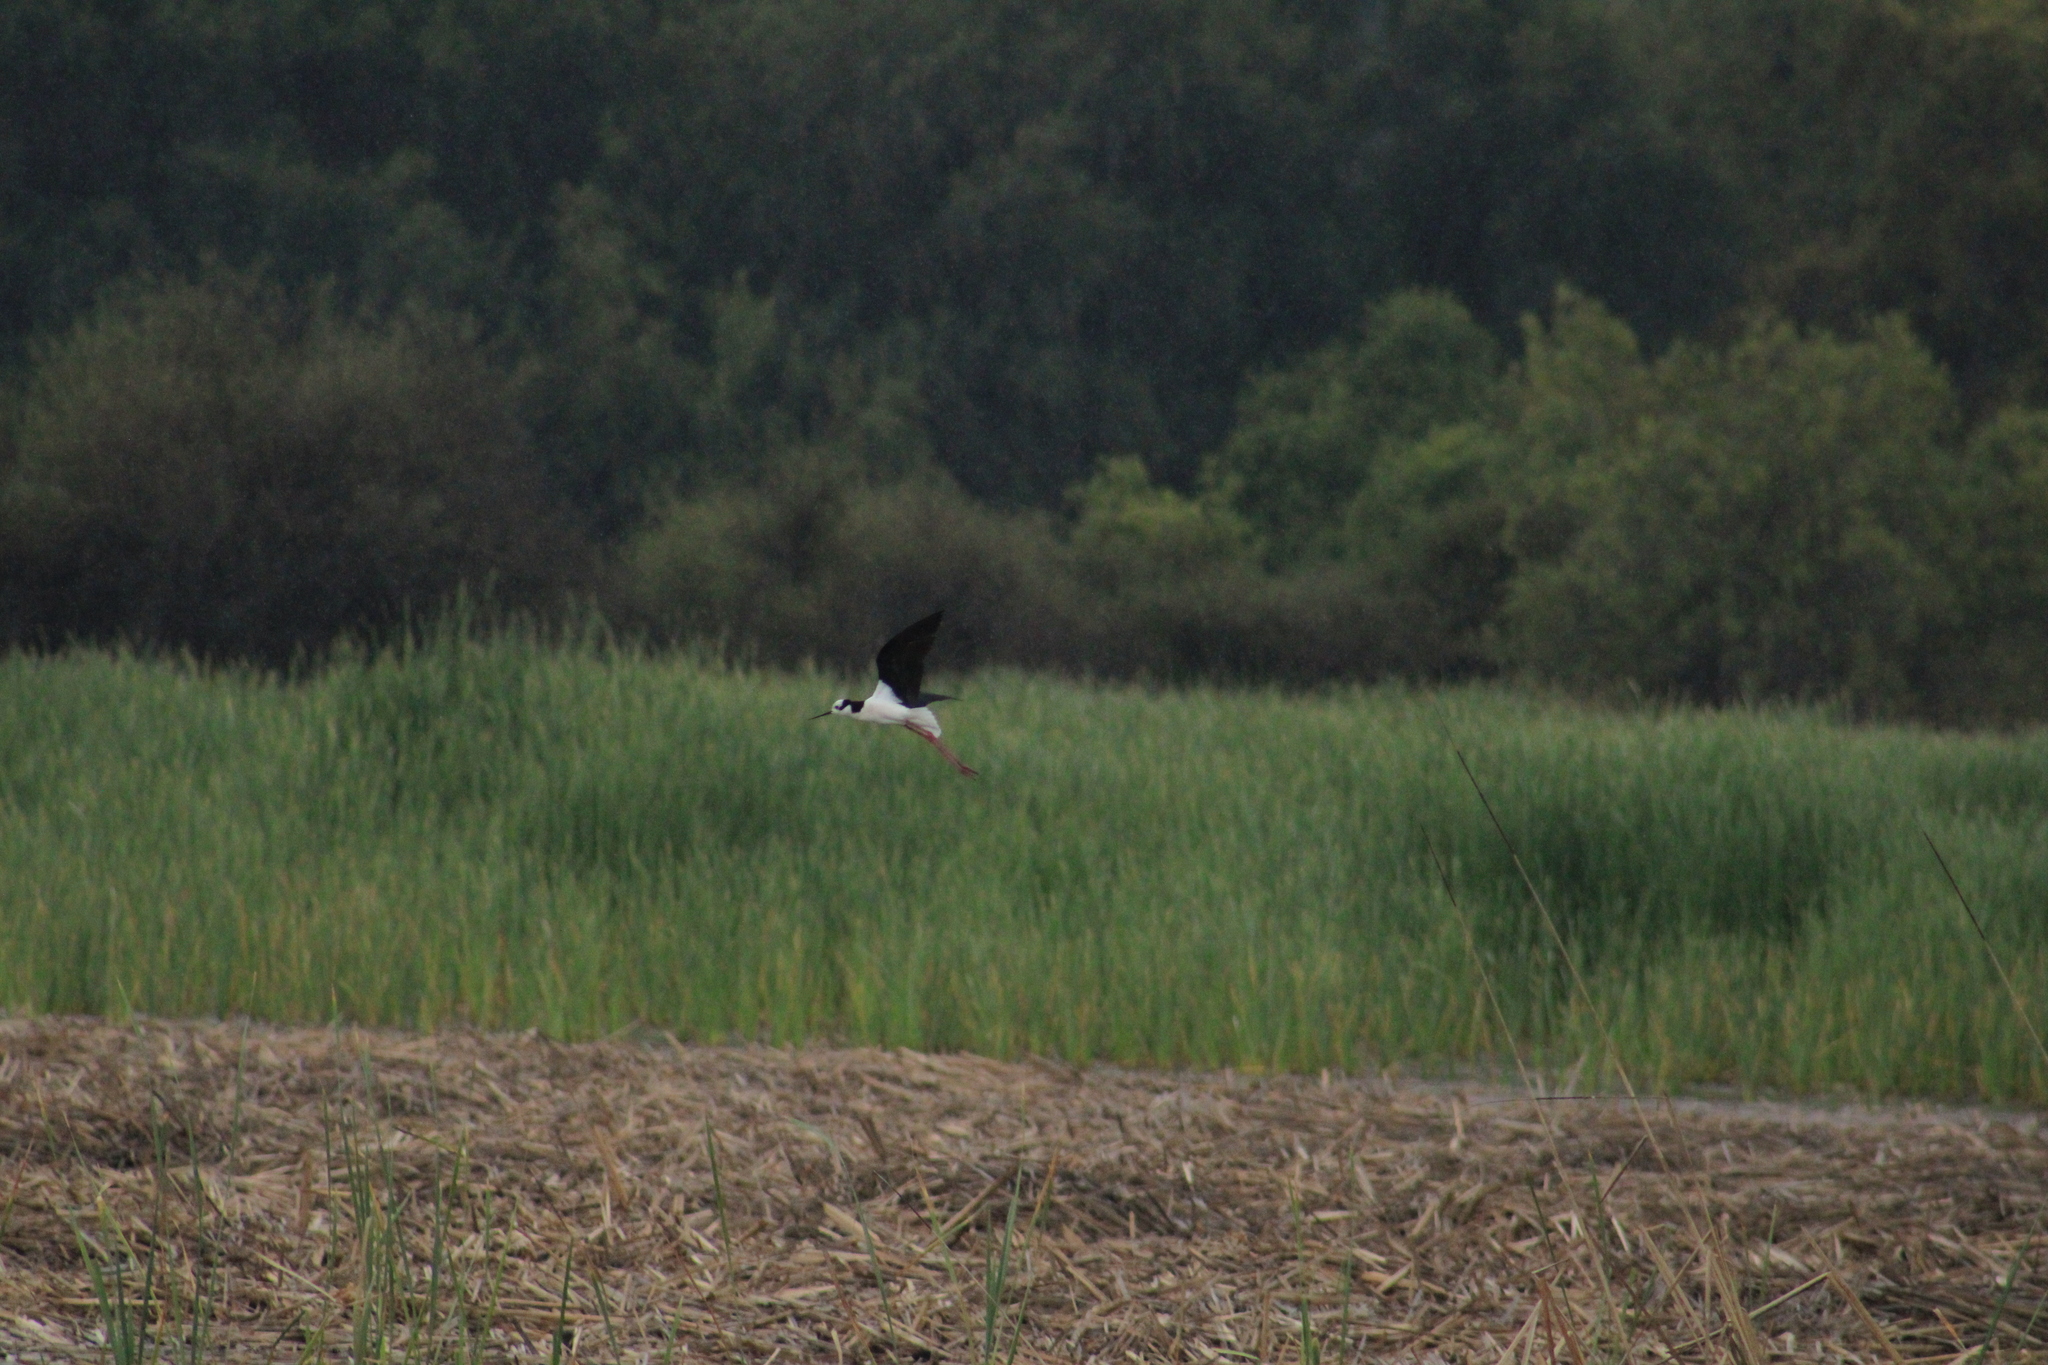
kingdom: Animalia
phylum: Chordata
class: Aves
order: Charadriiformes
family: Recurvirostridae
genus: Himantopus
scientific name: Himantopus mexicanus
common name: Black-necked stilt
